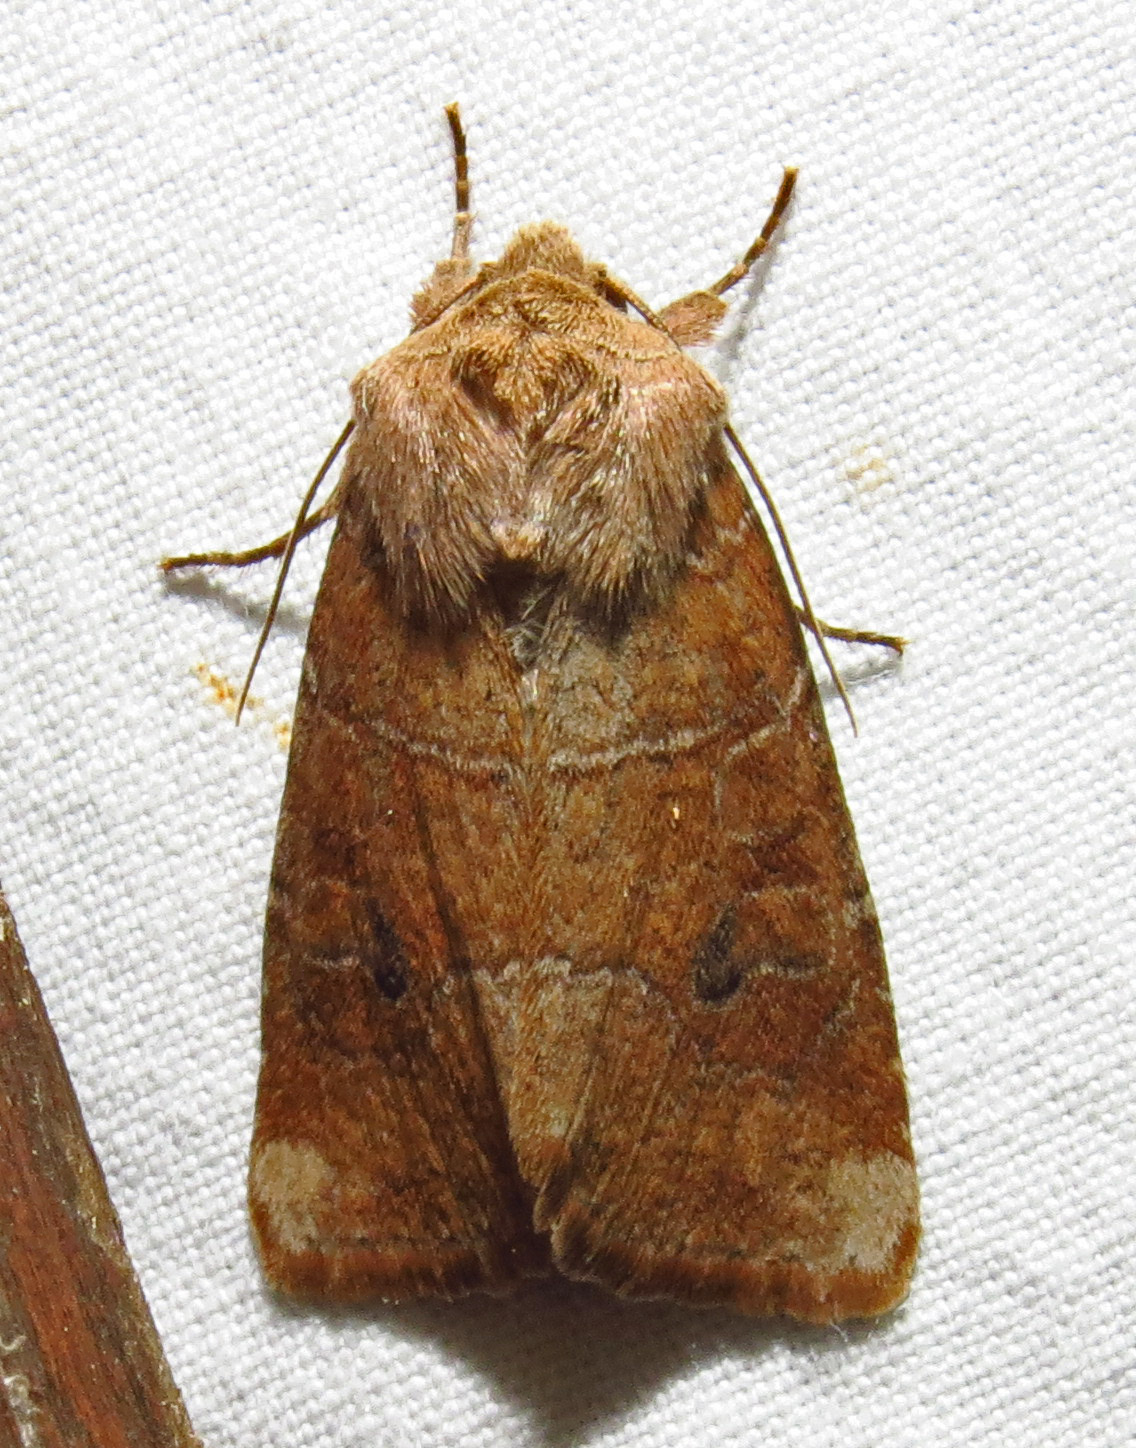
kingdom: Animalia
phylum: Arthropoda
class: Insecta
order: Lepidoptera
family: Noctuidae
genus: Crocigrapha
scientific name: Crocigrapha normani
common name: Norman's quaker
